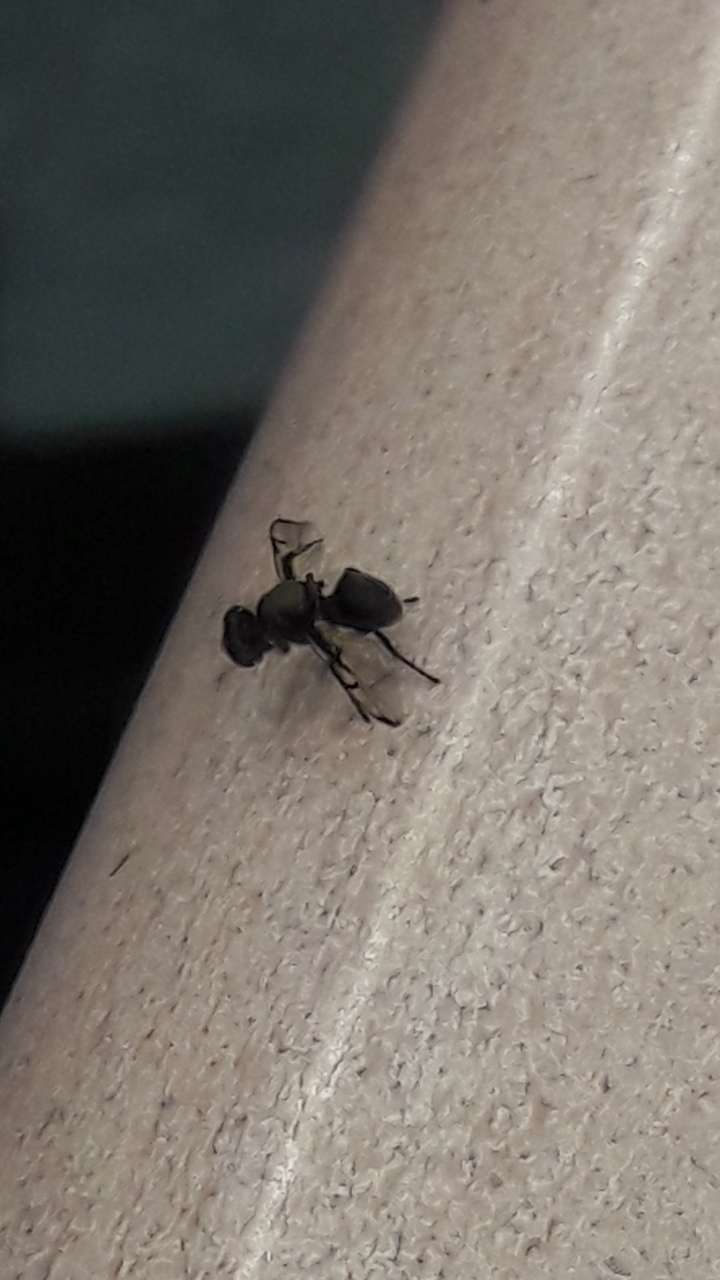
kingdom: Animalia
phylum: Arthropoda
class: Insecta
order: Diptera
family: Platystomatidae
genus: Pogonortalis
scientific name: Pogonortalis doclea
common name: Boatman fly
